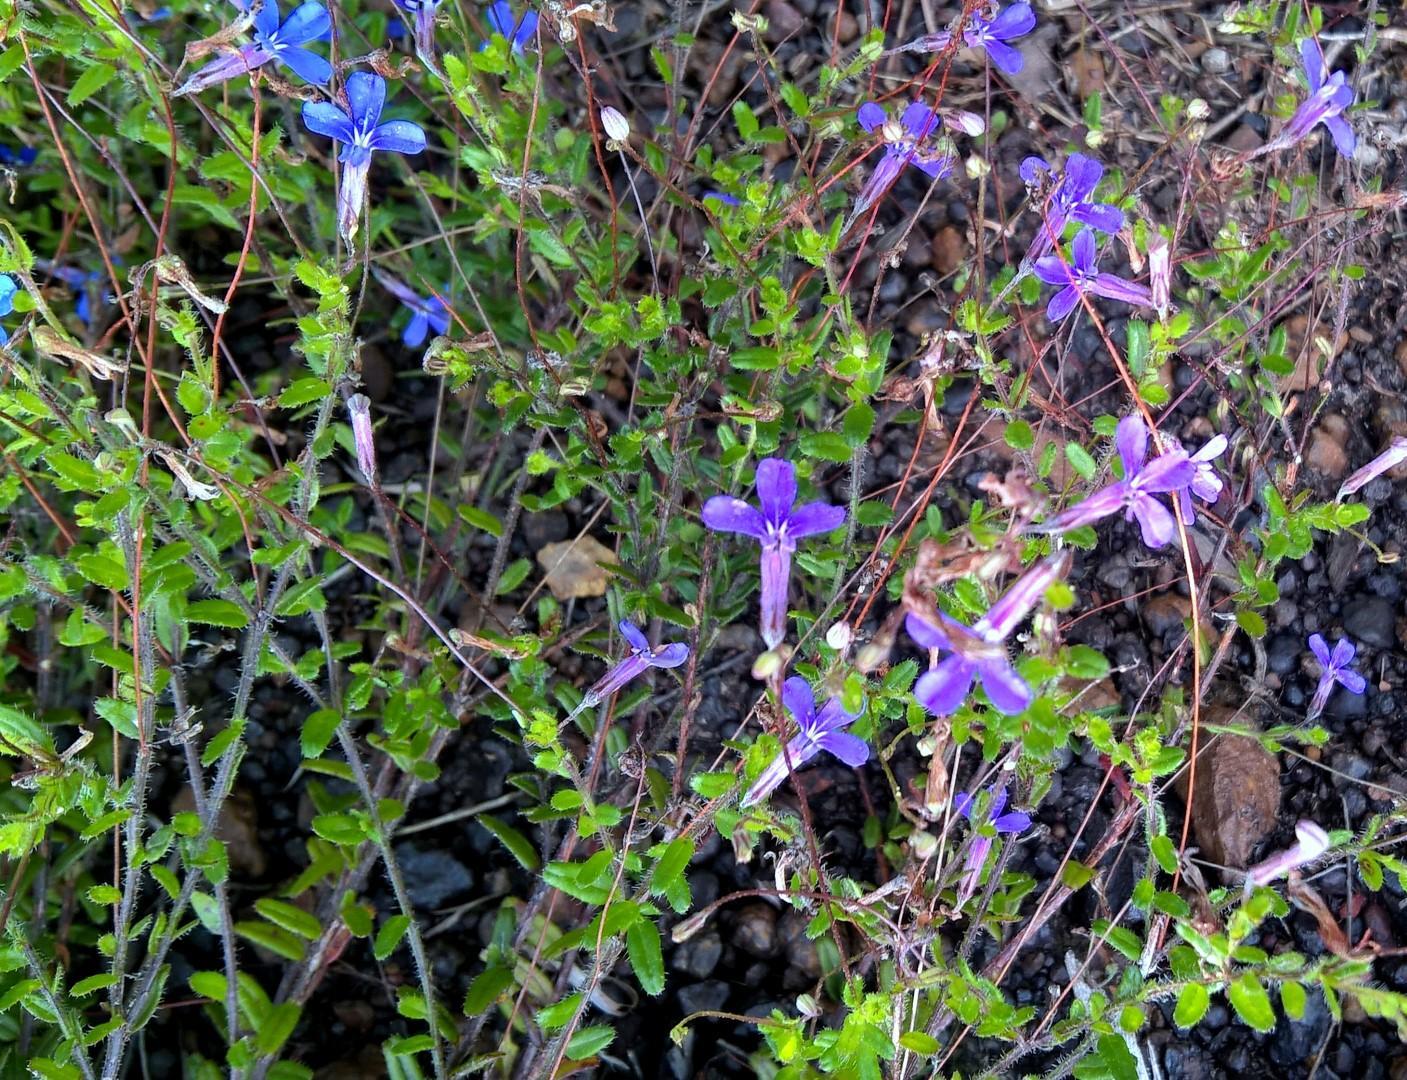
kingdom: Plantae
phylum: Tracheophyta
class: Magnoliopsida
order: Asterales
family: Campanulaceae
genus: Lobelia
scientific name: Lobelia neglecta
